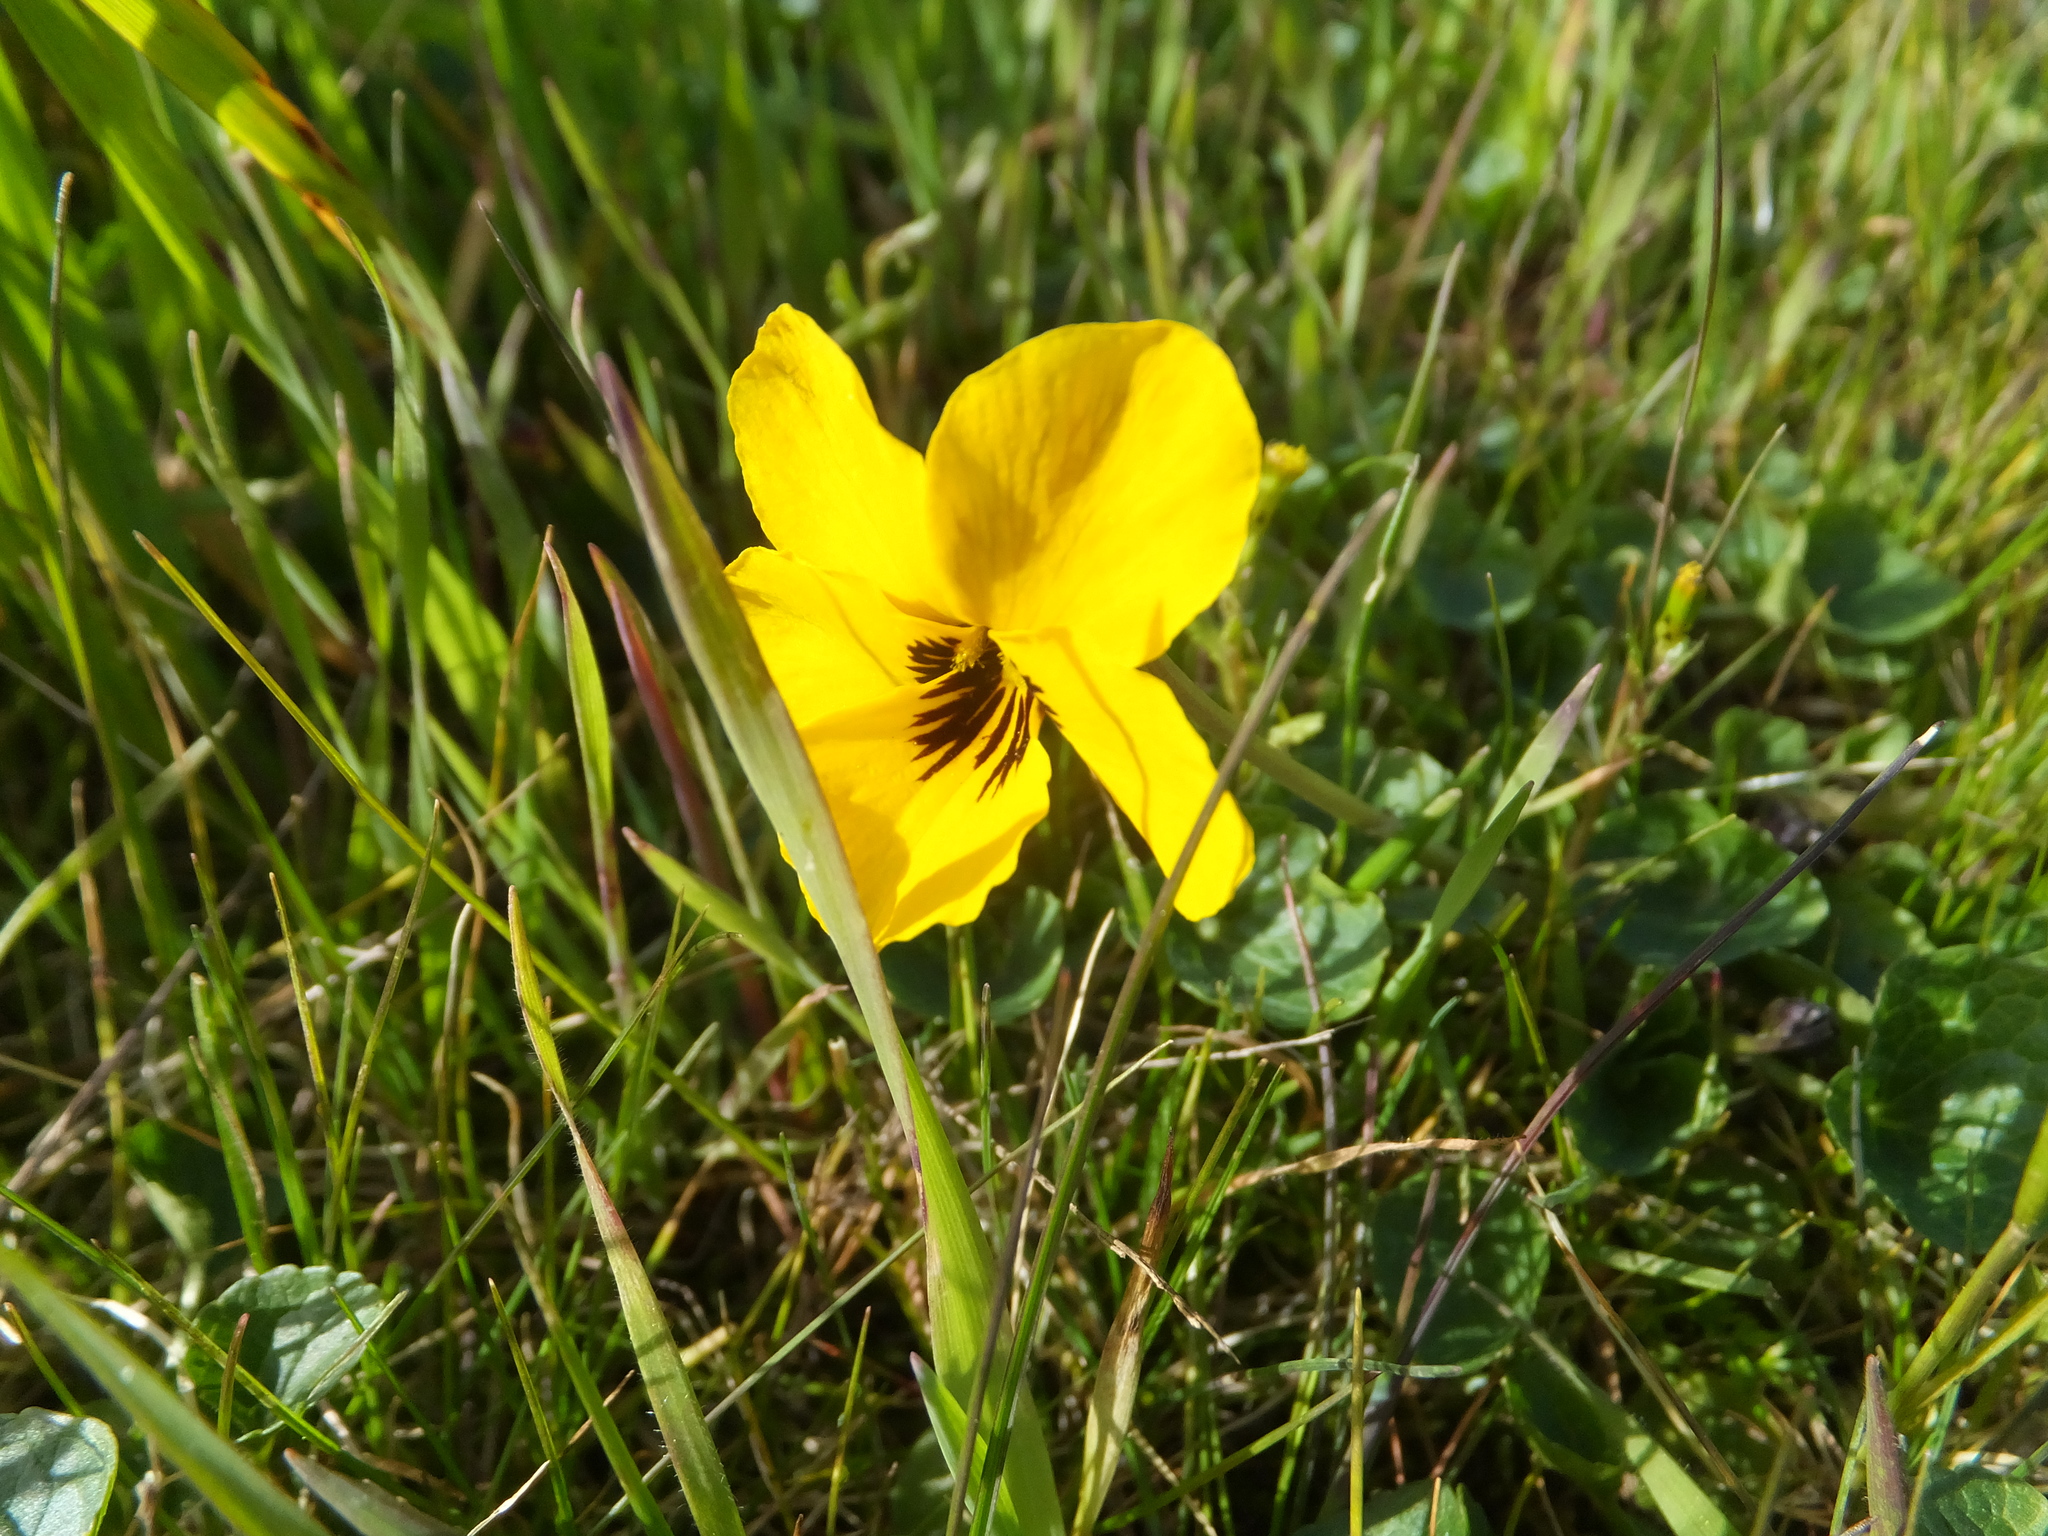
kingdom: Plantae
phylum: Tracheophyta
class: Magnoliopsida
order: Malpighiales
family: Violaceae
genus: Viola
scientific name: Viola pedunculata
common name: California golden violet
